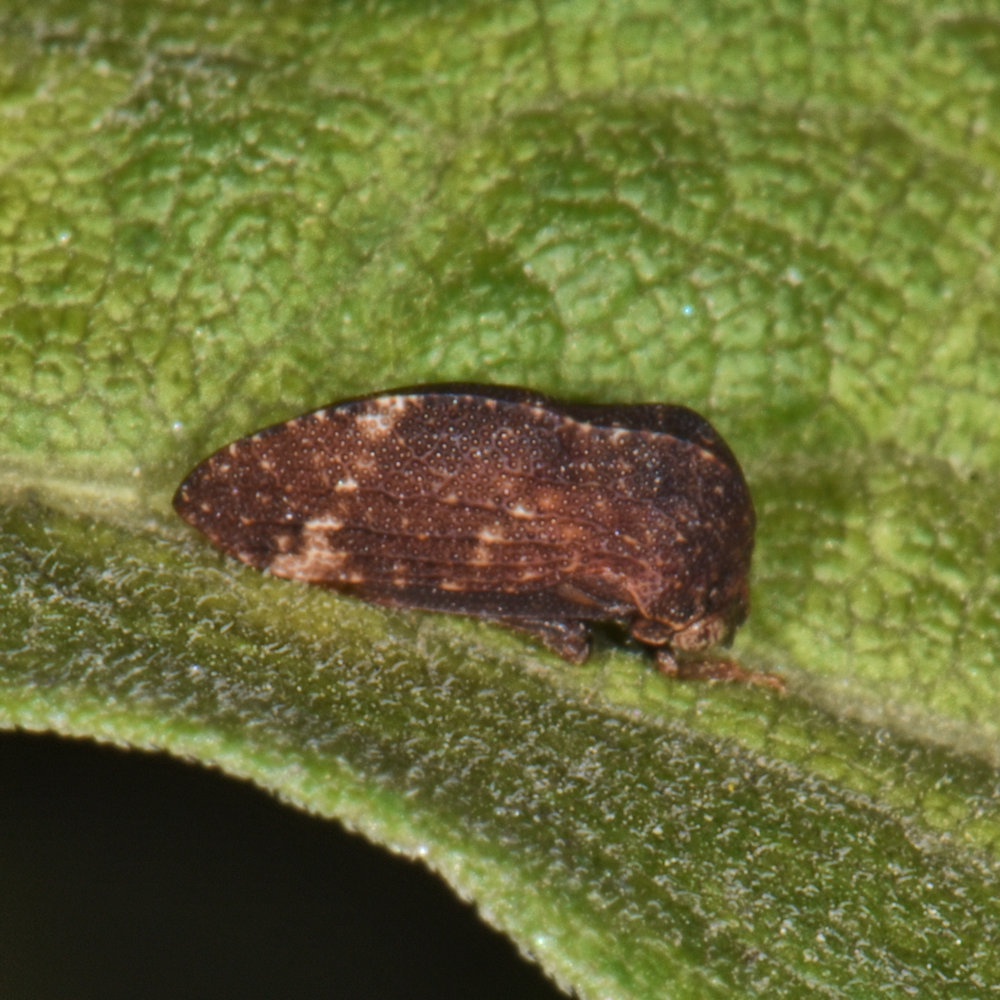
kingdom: Animalia
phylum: Arthropoda
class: Insecta
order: Hemiptera
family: Membracidae
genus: Publilia
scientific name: Publilia concava
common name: Aster treehopper
